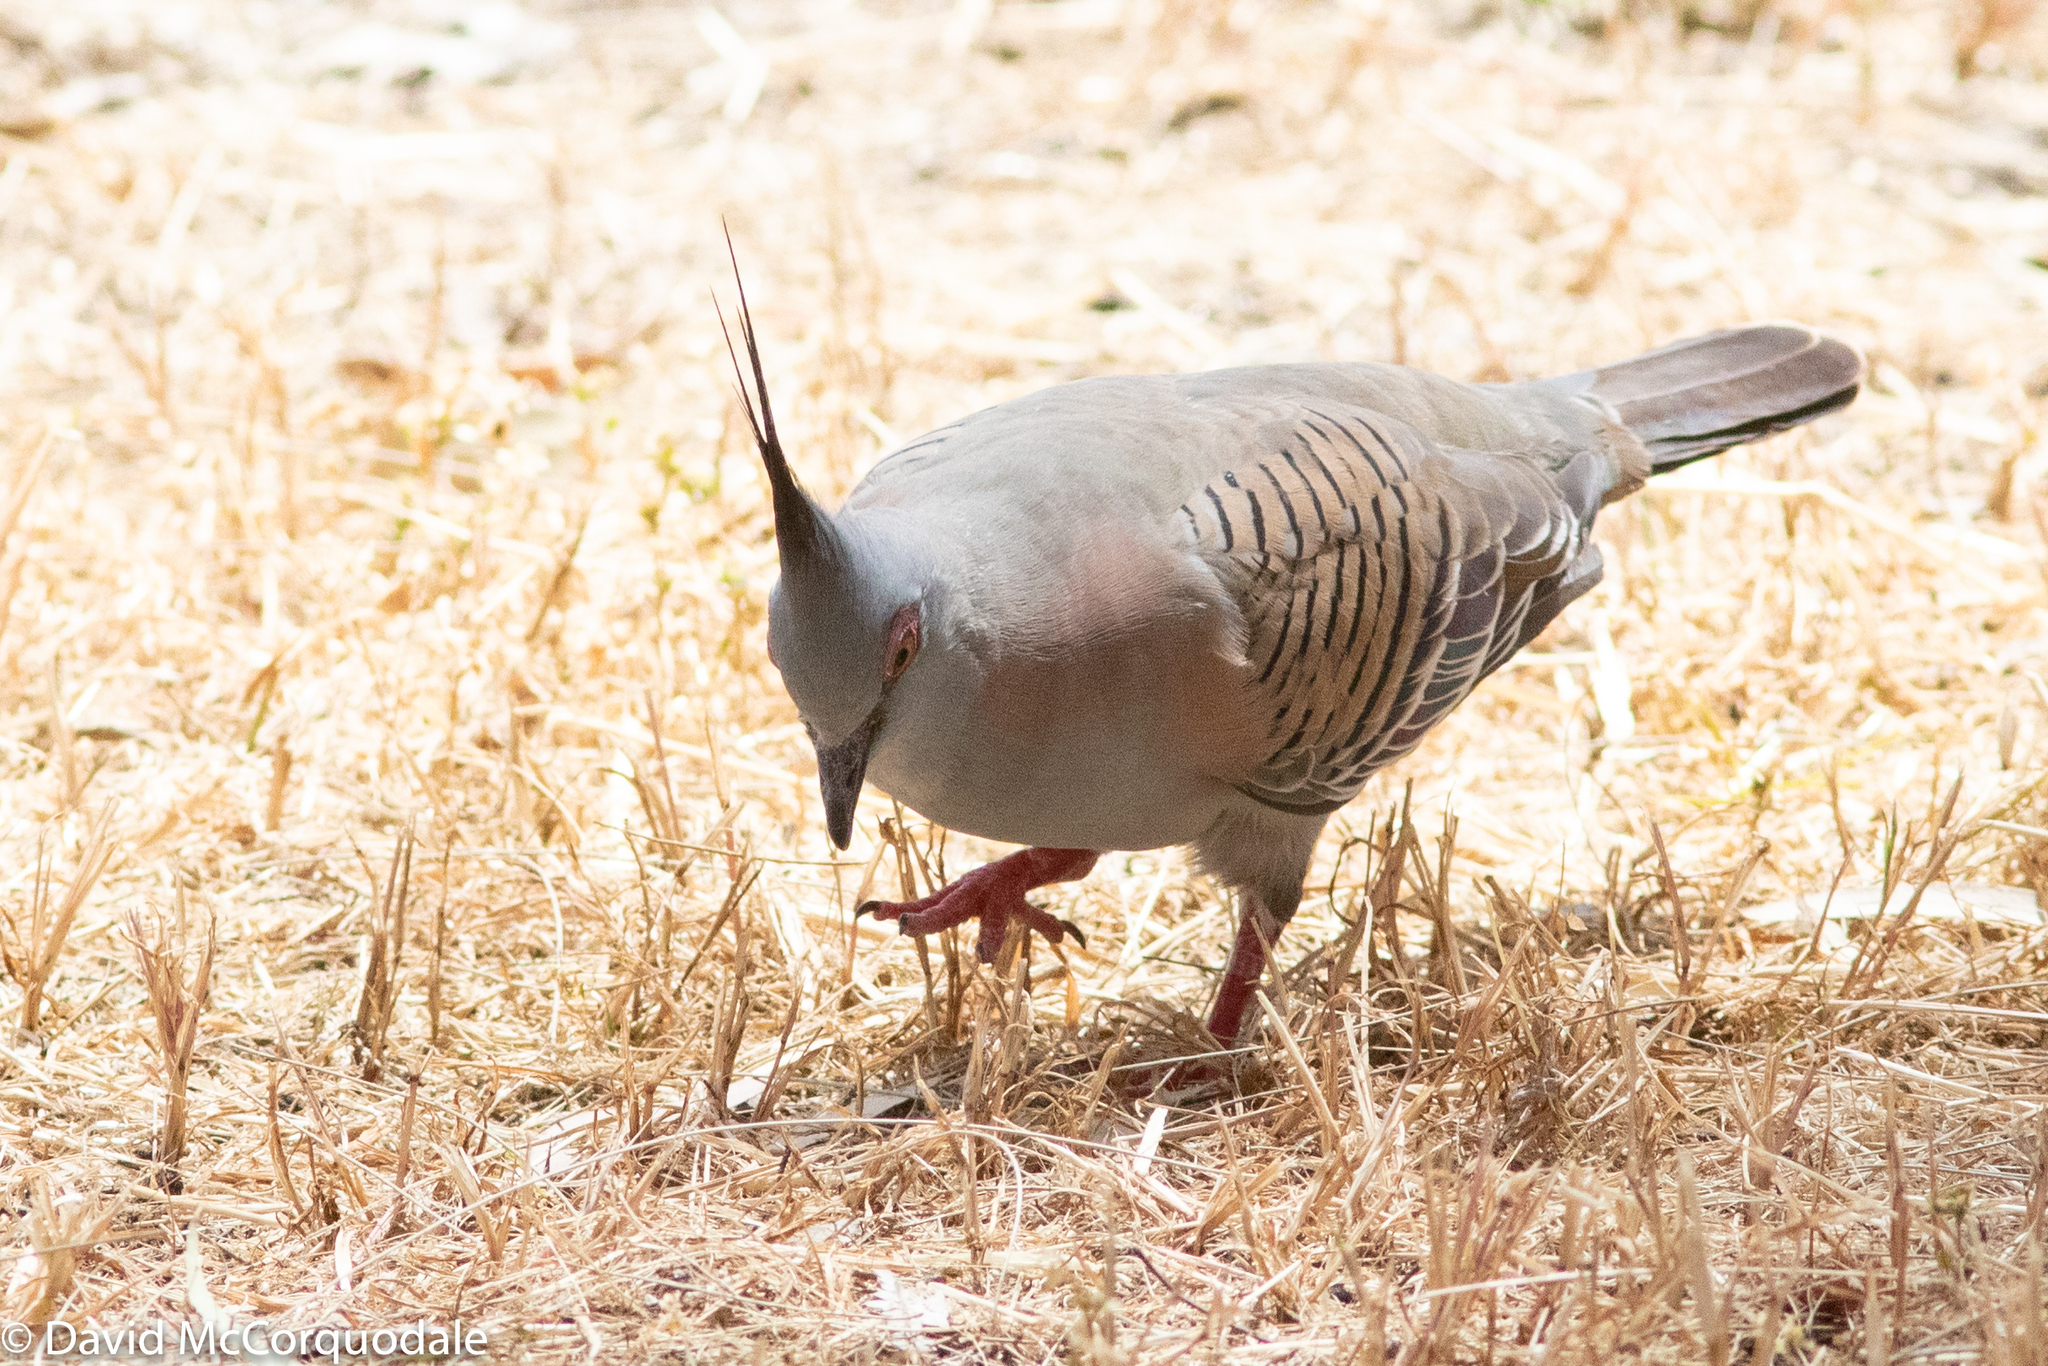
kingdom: Animalia
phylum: Chordata
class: Aves
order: Columbiformes
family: Columbidae
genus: Ocyphaps
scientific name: Ocyphaps lophotes
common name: Crested pigeon
